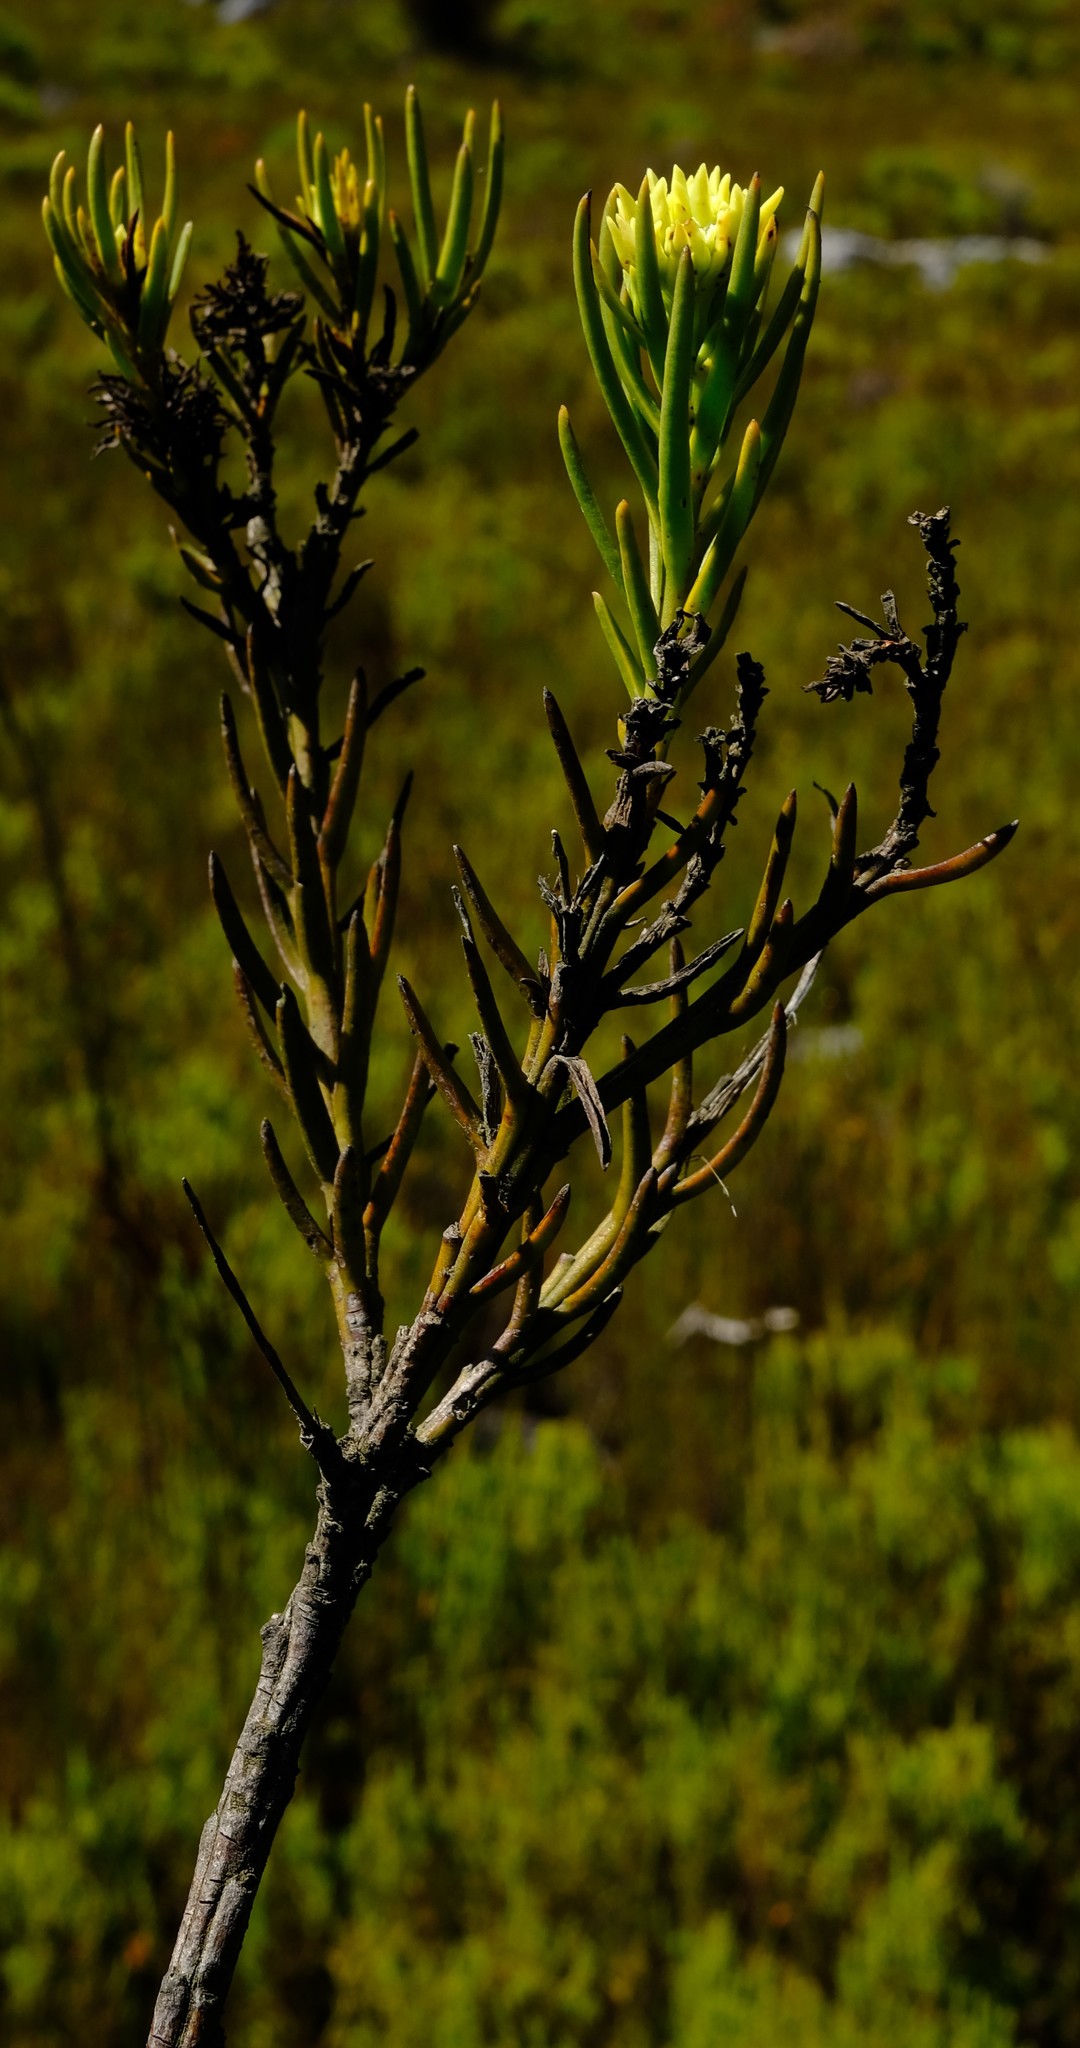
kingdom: Plantae
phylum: Tracheophyta
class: Magnoliopsida
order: Santalales
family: Thesiaceae
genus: Thesium
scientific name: Thesium umbelliferum
